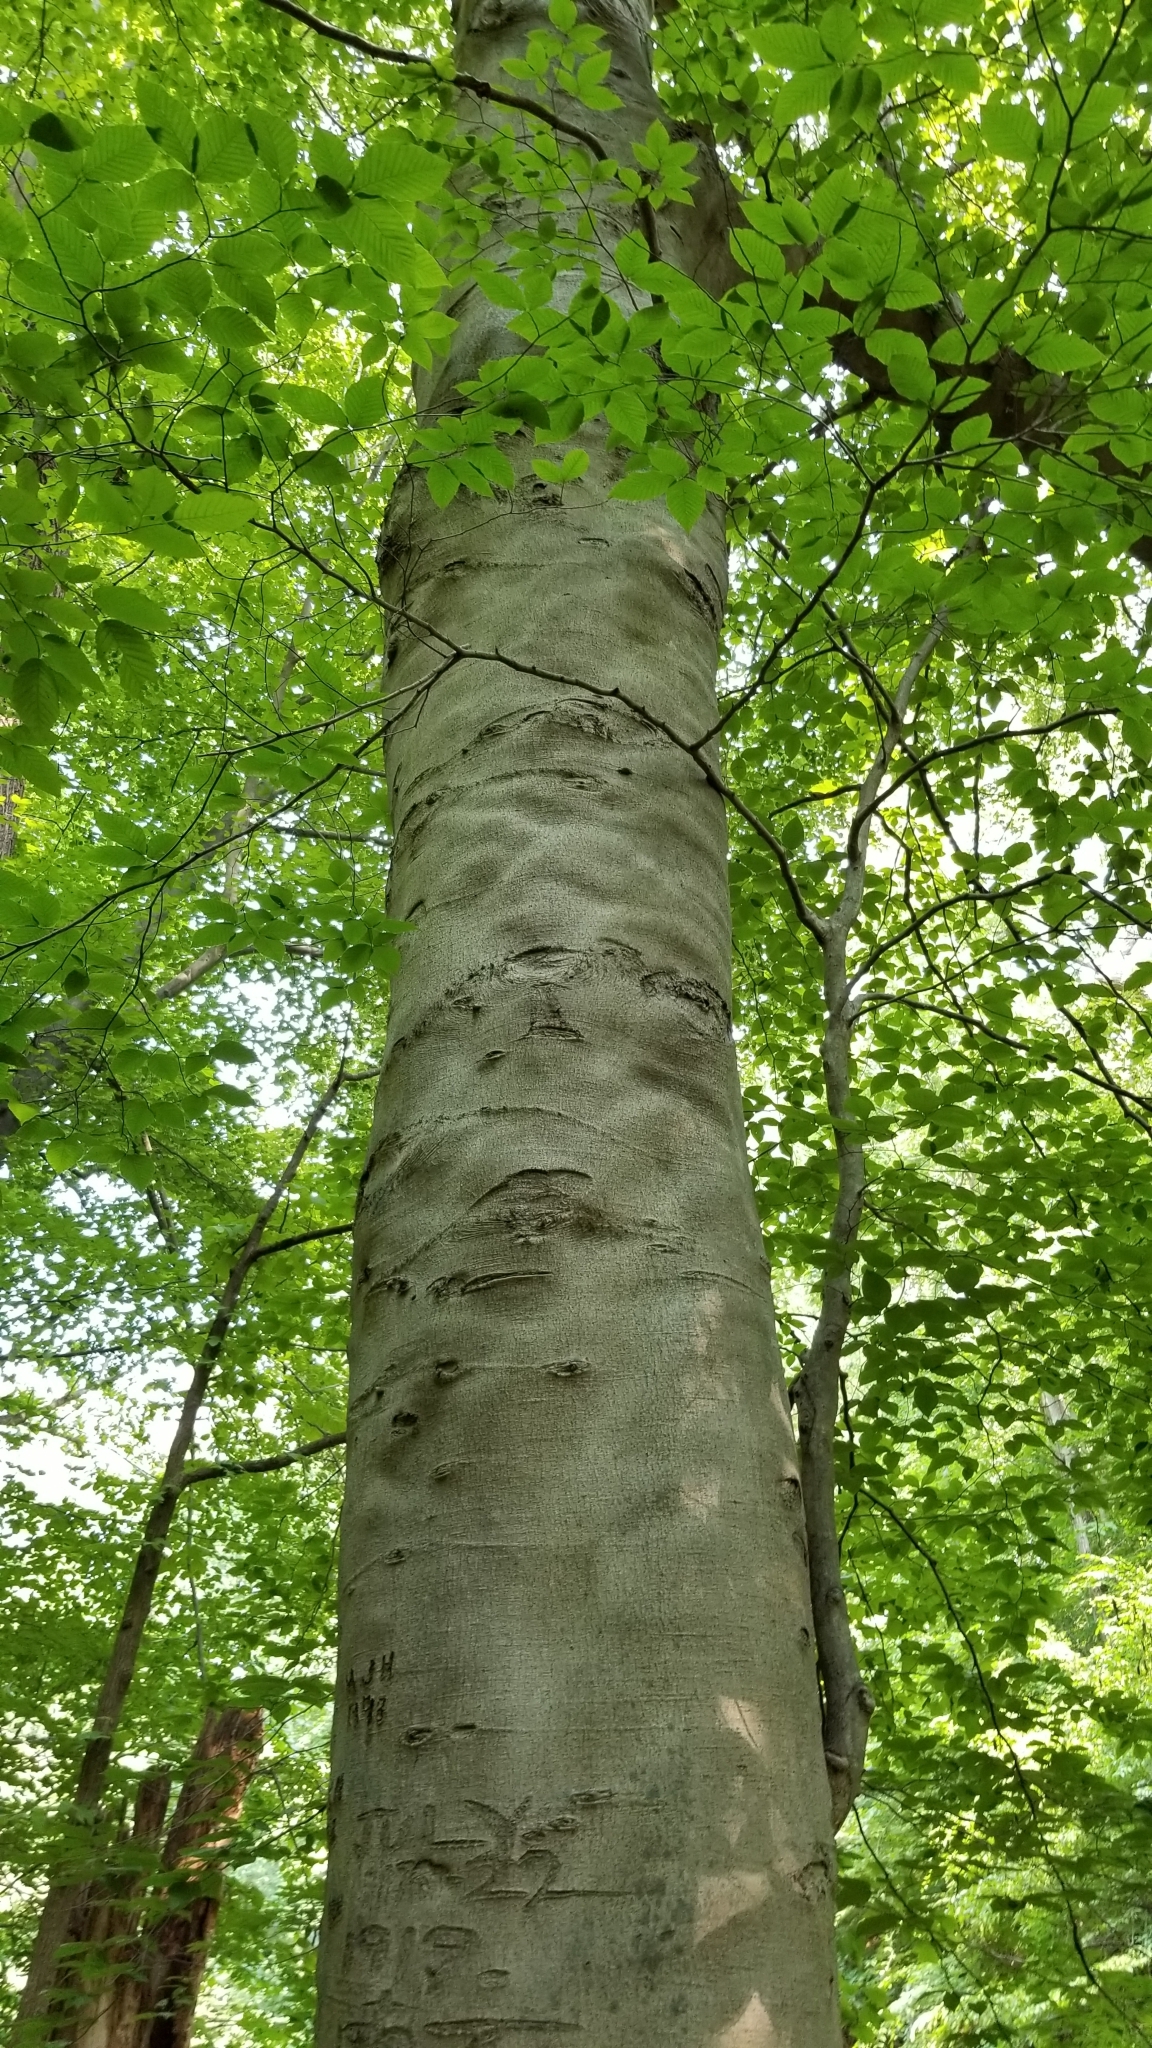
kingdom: Plantae
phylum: Tracheophyta
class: Magnoliopsida
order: Fagales
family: Fagaceae
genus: Fagus
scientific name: Fagus grandifolia
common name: American beech
